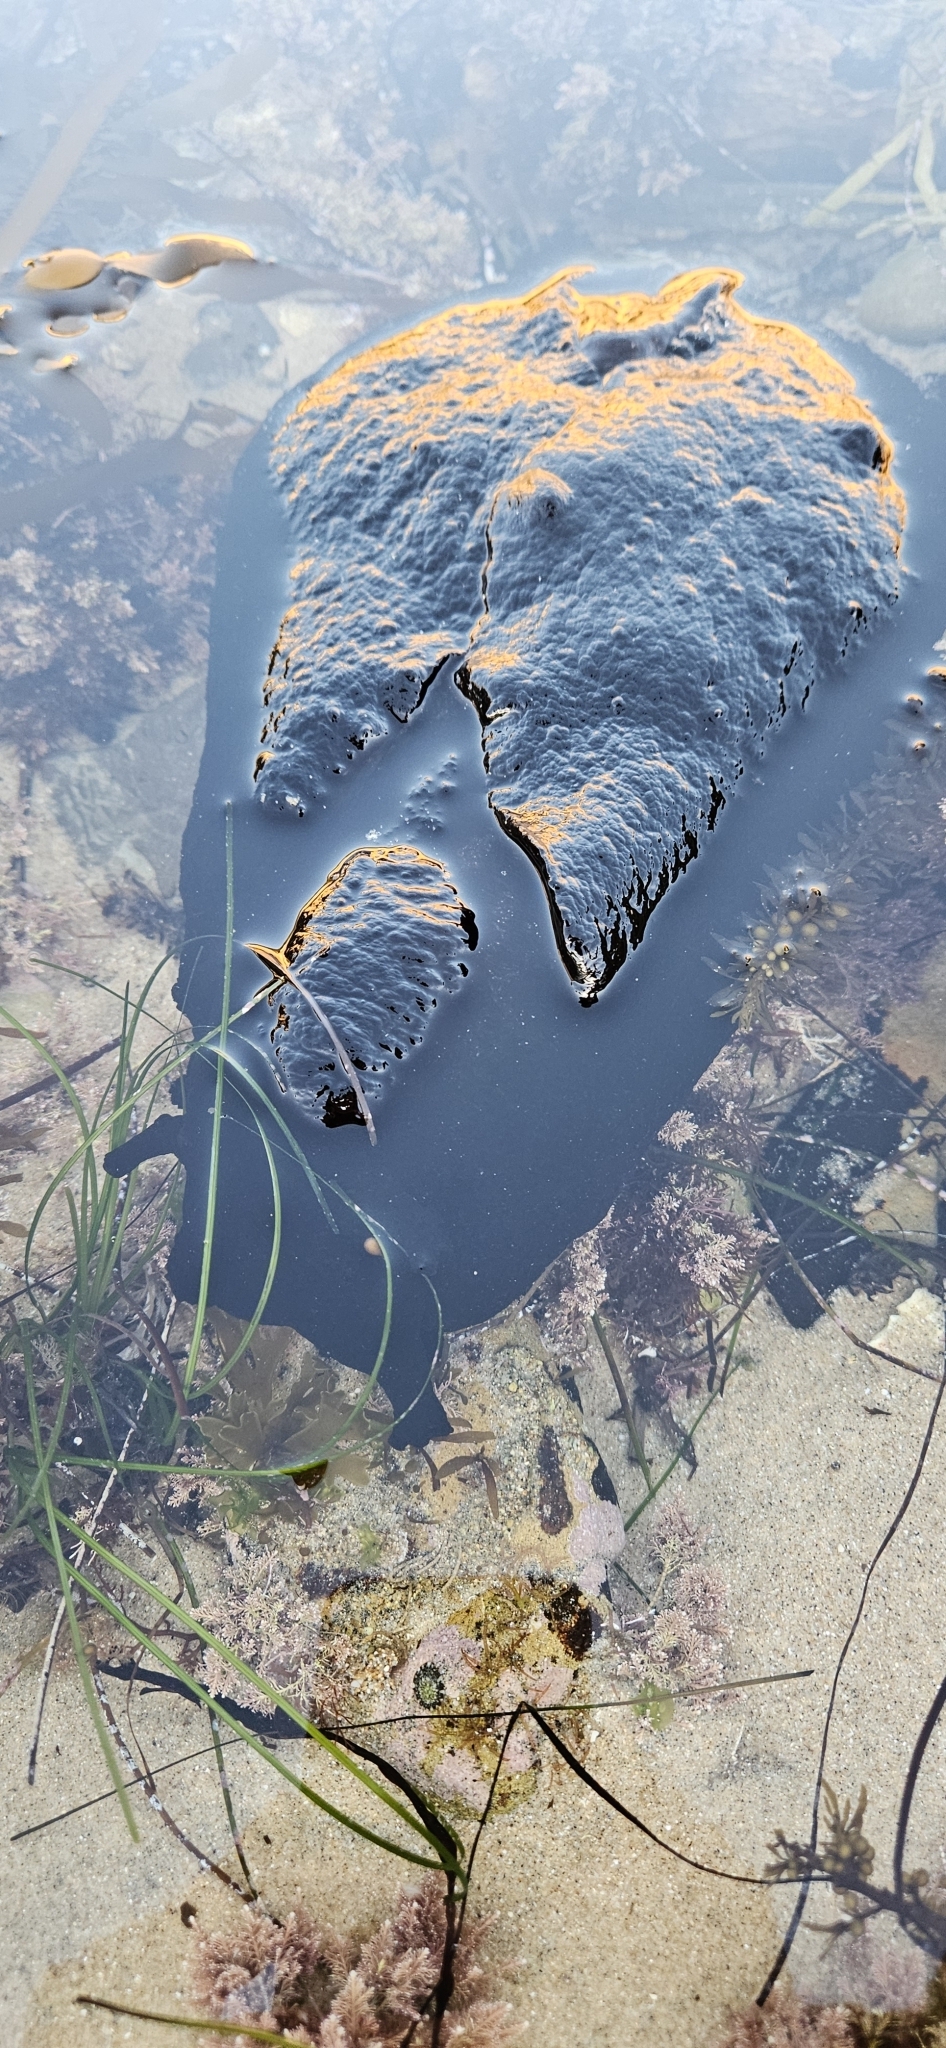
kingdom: Animalia
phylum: Mollusca
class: Gastropoda
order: Aplysiida
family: Aplysiidae
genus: Aplysia
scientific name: Aplysia vaccaria
